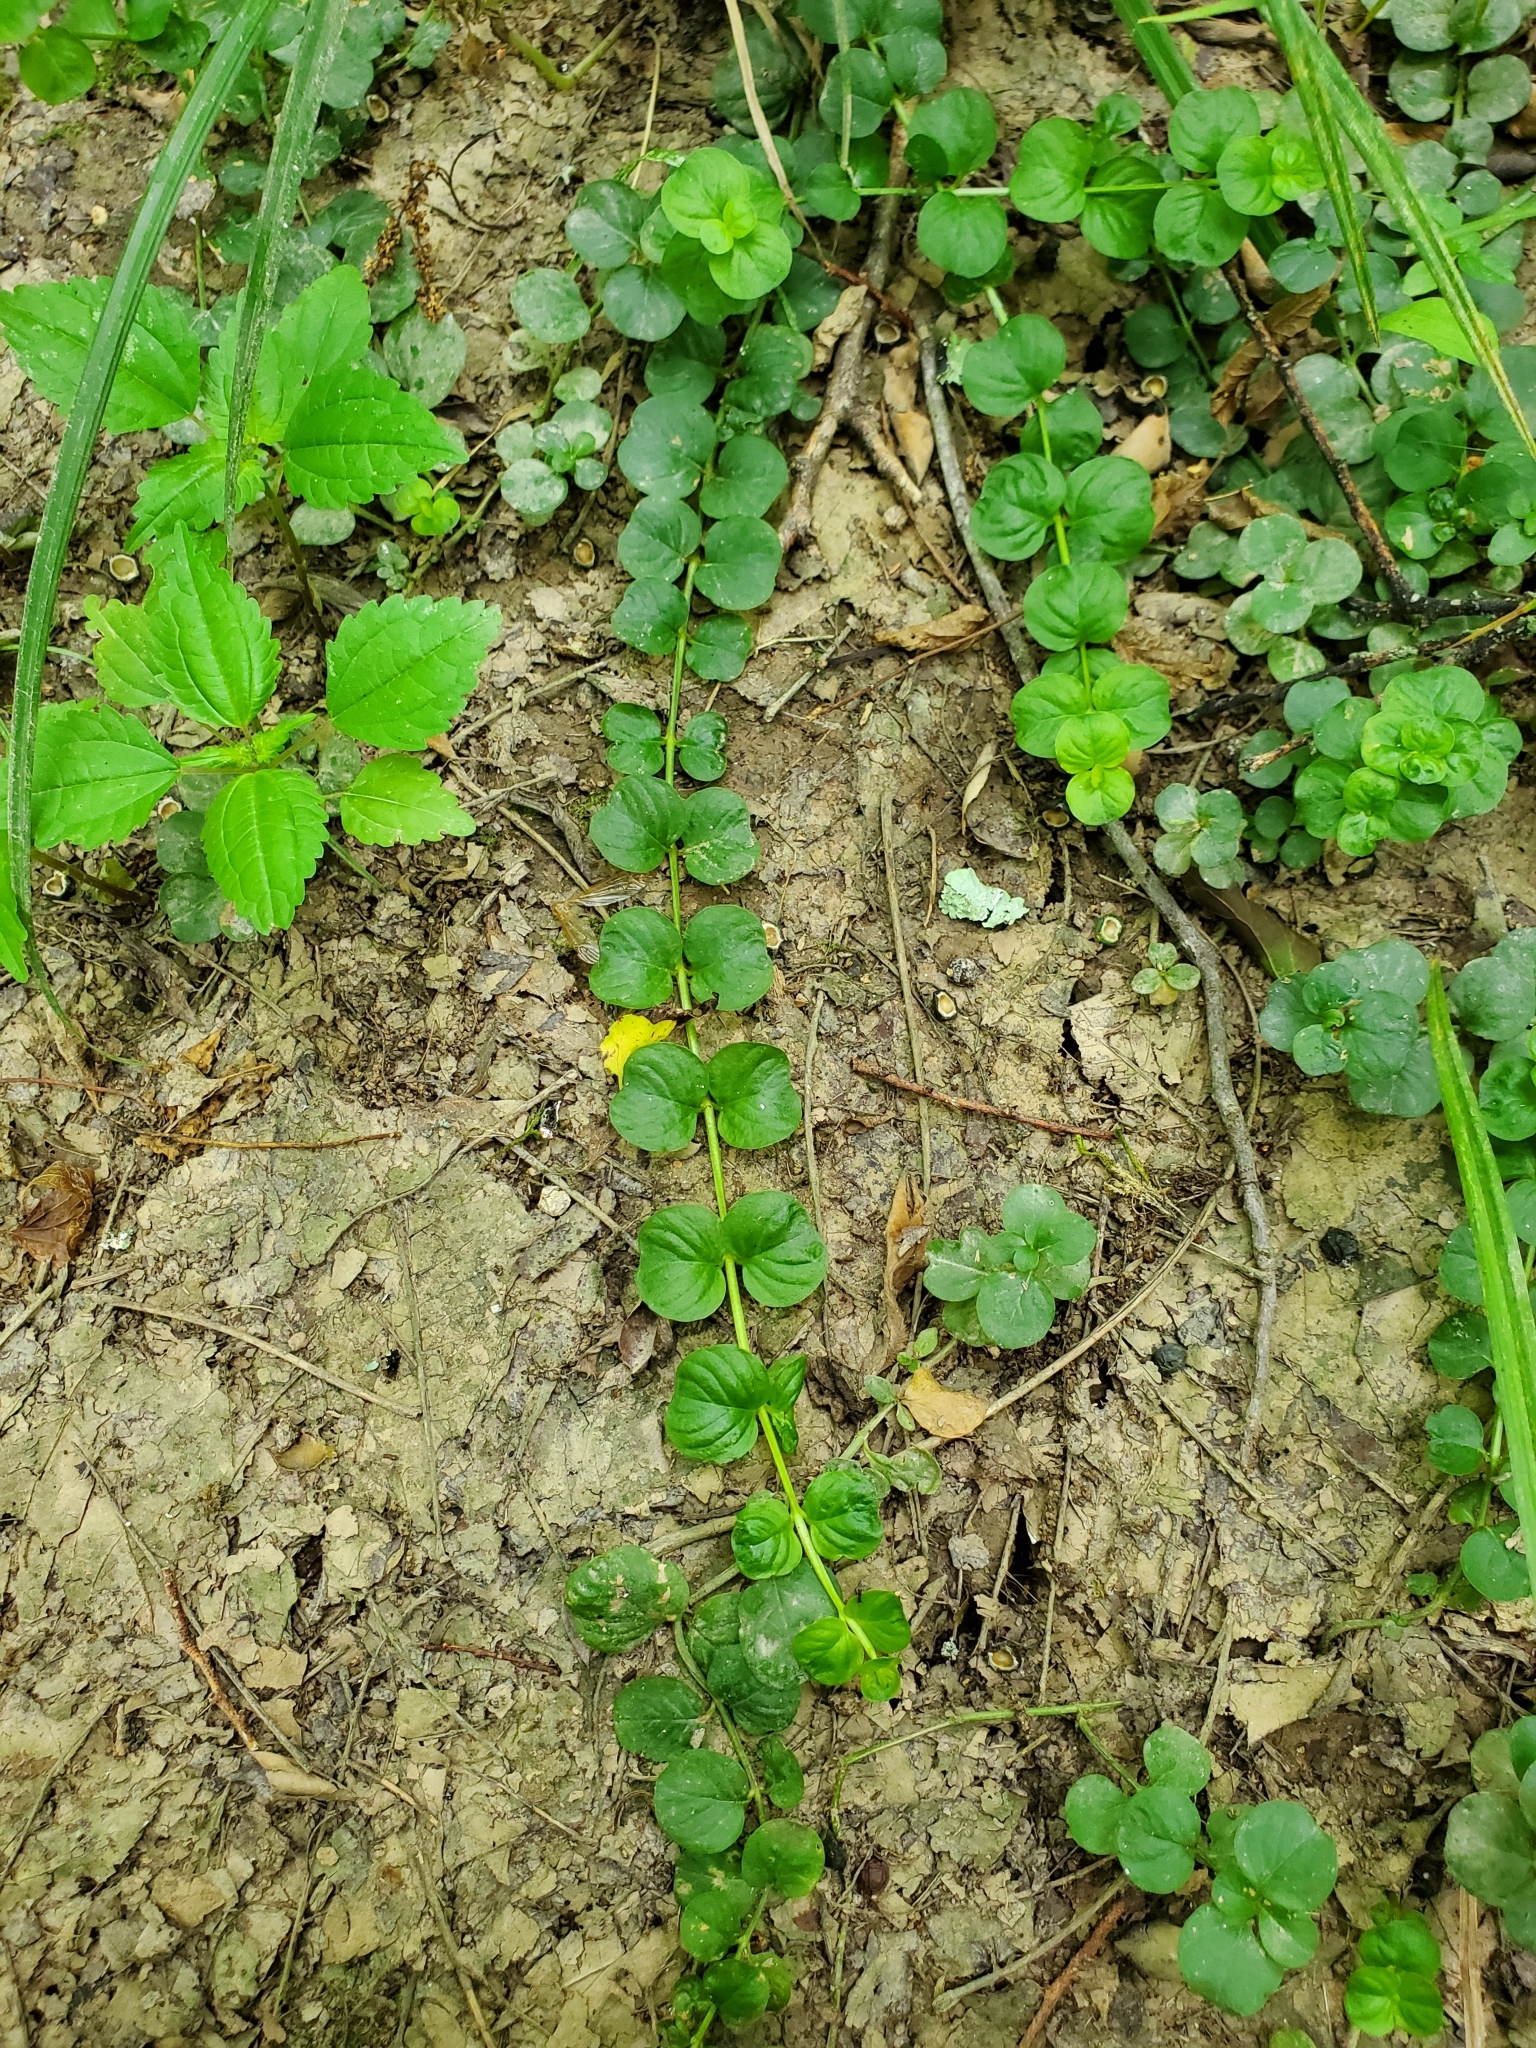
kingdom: Plantae
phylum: Tracheophyta
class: Magnoliopsida
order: Ericales
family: Primulaceae
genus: Lysimachia
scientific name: Lysimachia nummularia
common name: Moneywort
